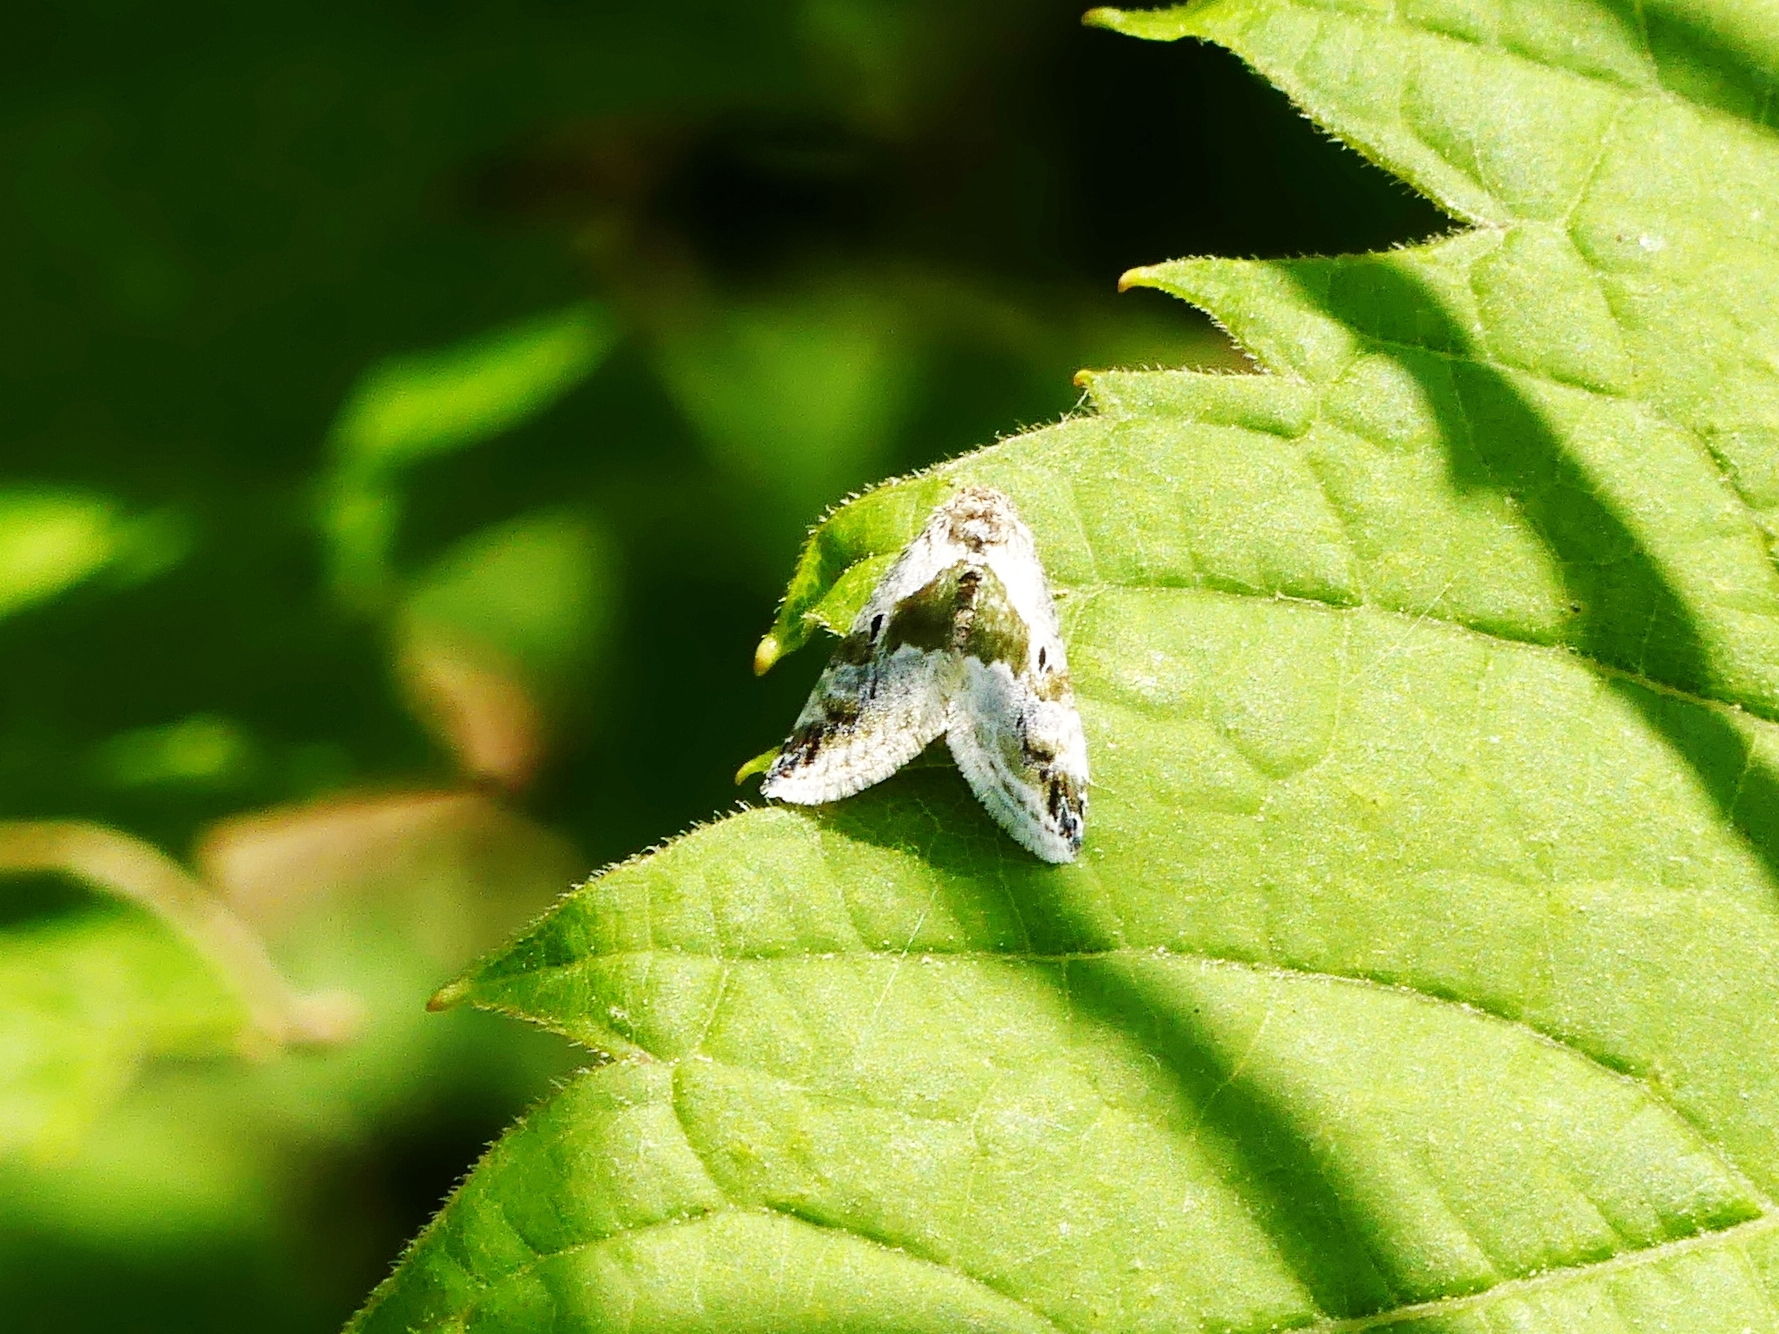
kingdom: Animalia
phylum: Arthropoda
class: Insecta
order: Lepidoptera
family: Noctuidae
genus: Maliattha
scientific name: Maliattha synochitis
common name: Black-dotted glyph
